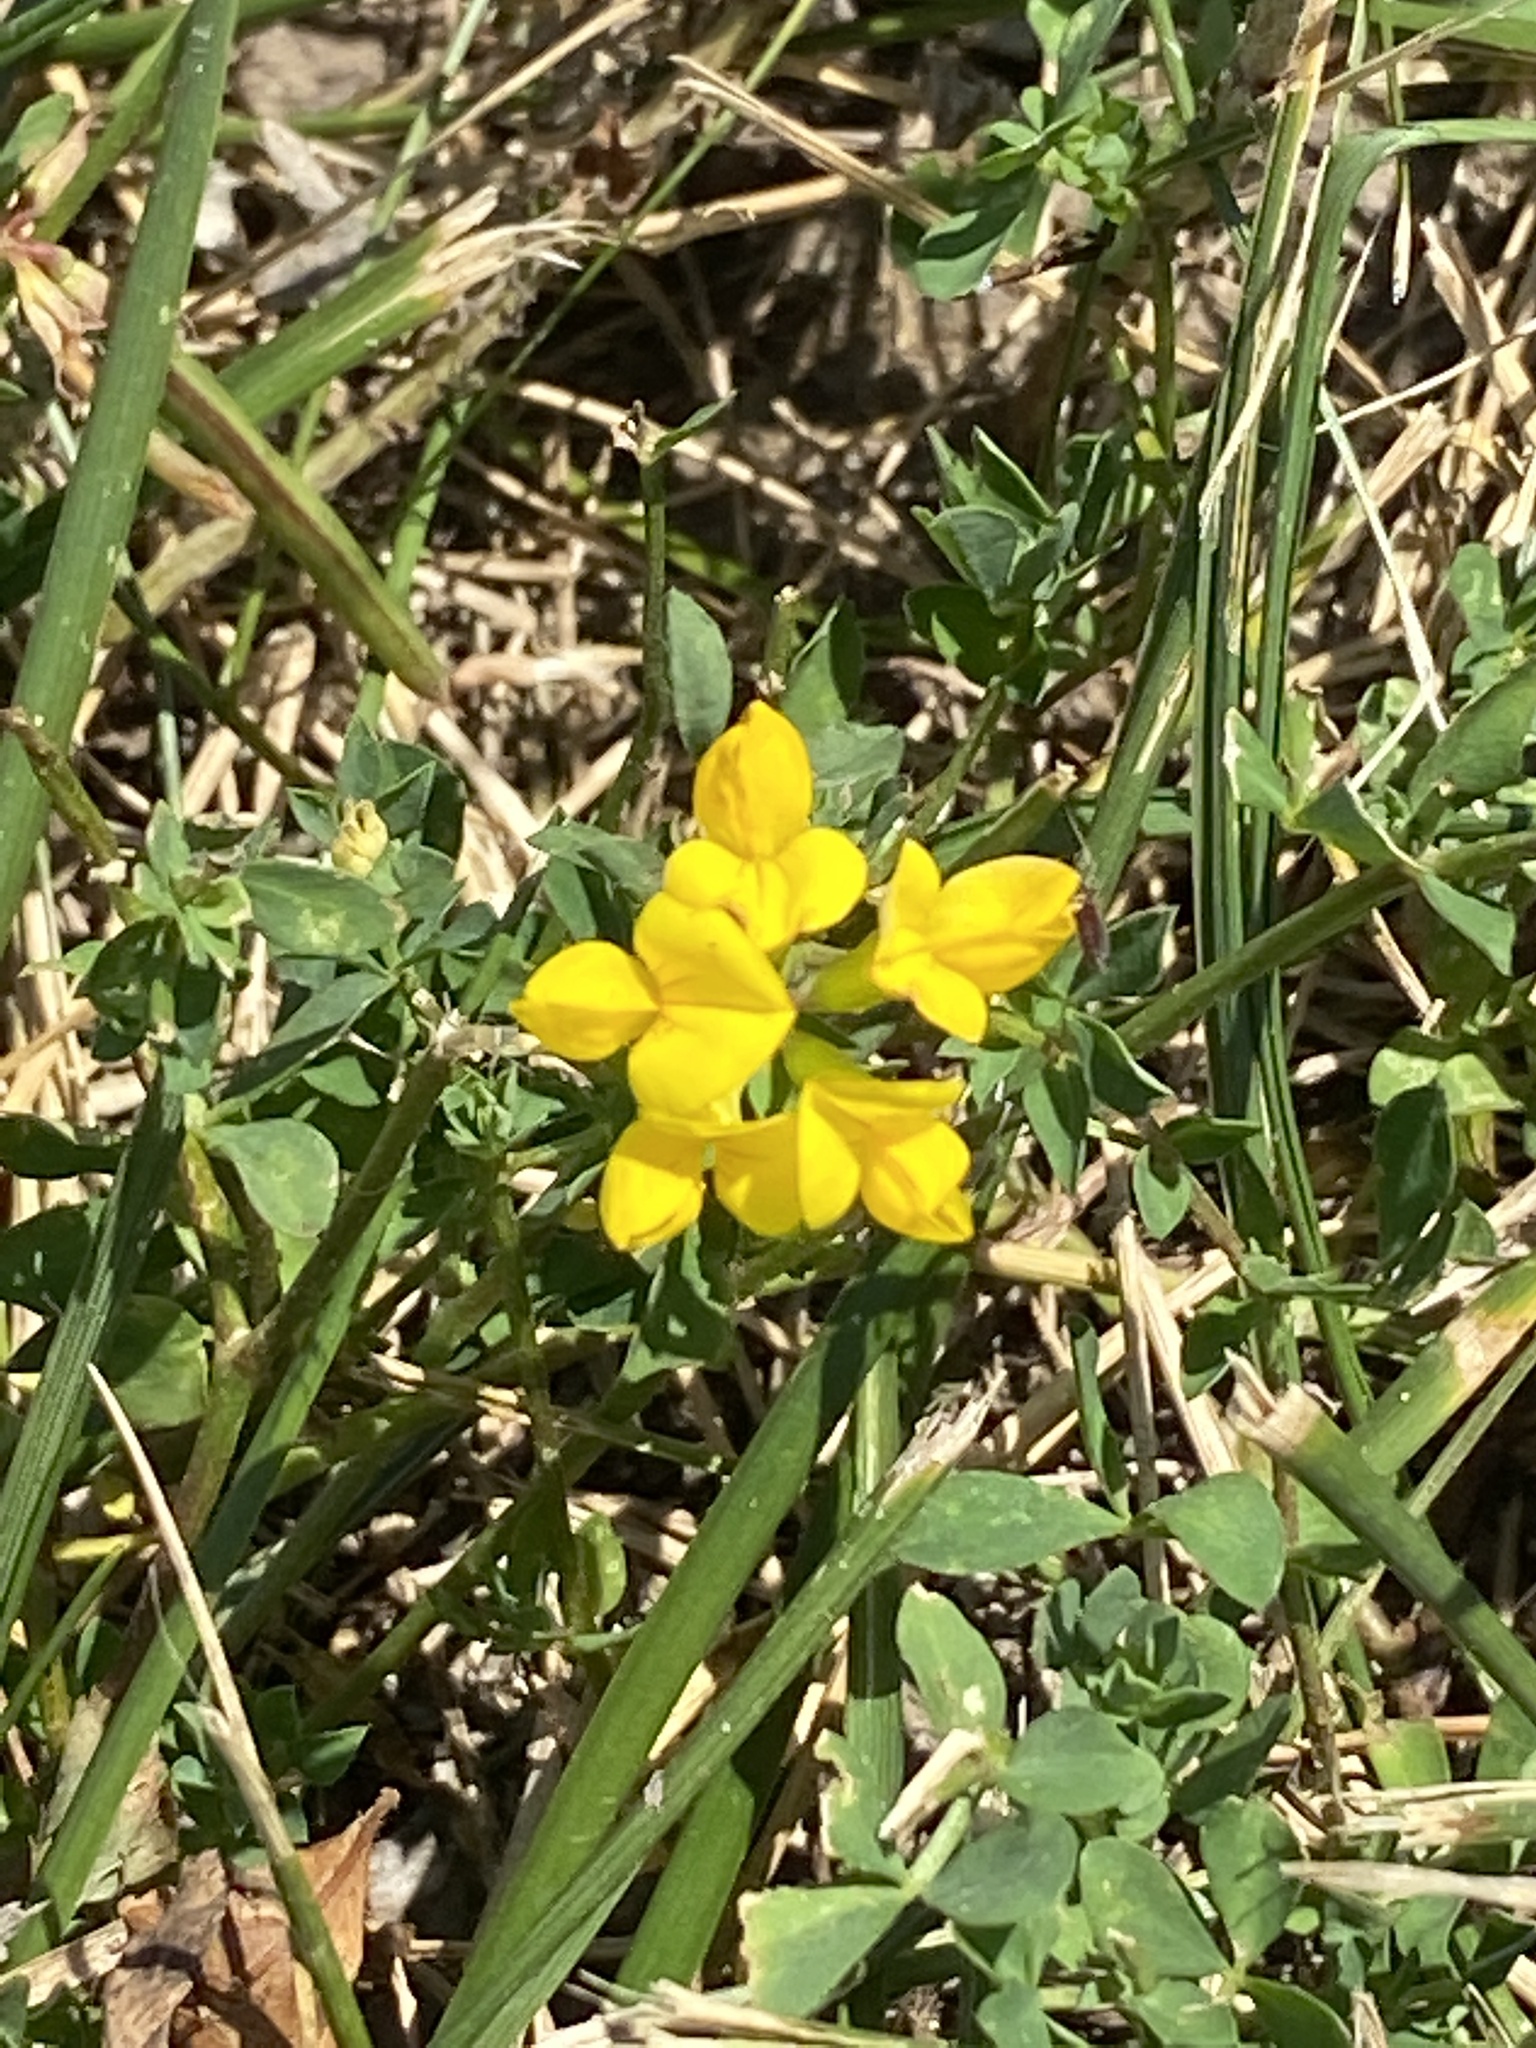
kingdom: Plantae
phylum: Tracheophyta
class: Magnoliopsida
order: Fabales
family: Fabaceae
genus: Lotus
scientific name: Lotus corniculatus
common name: Common bird's-foot-trefoil
